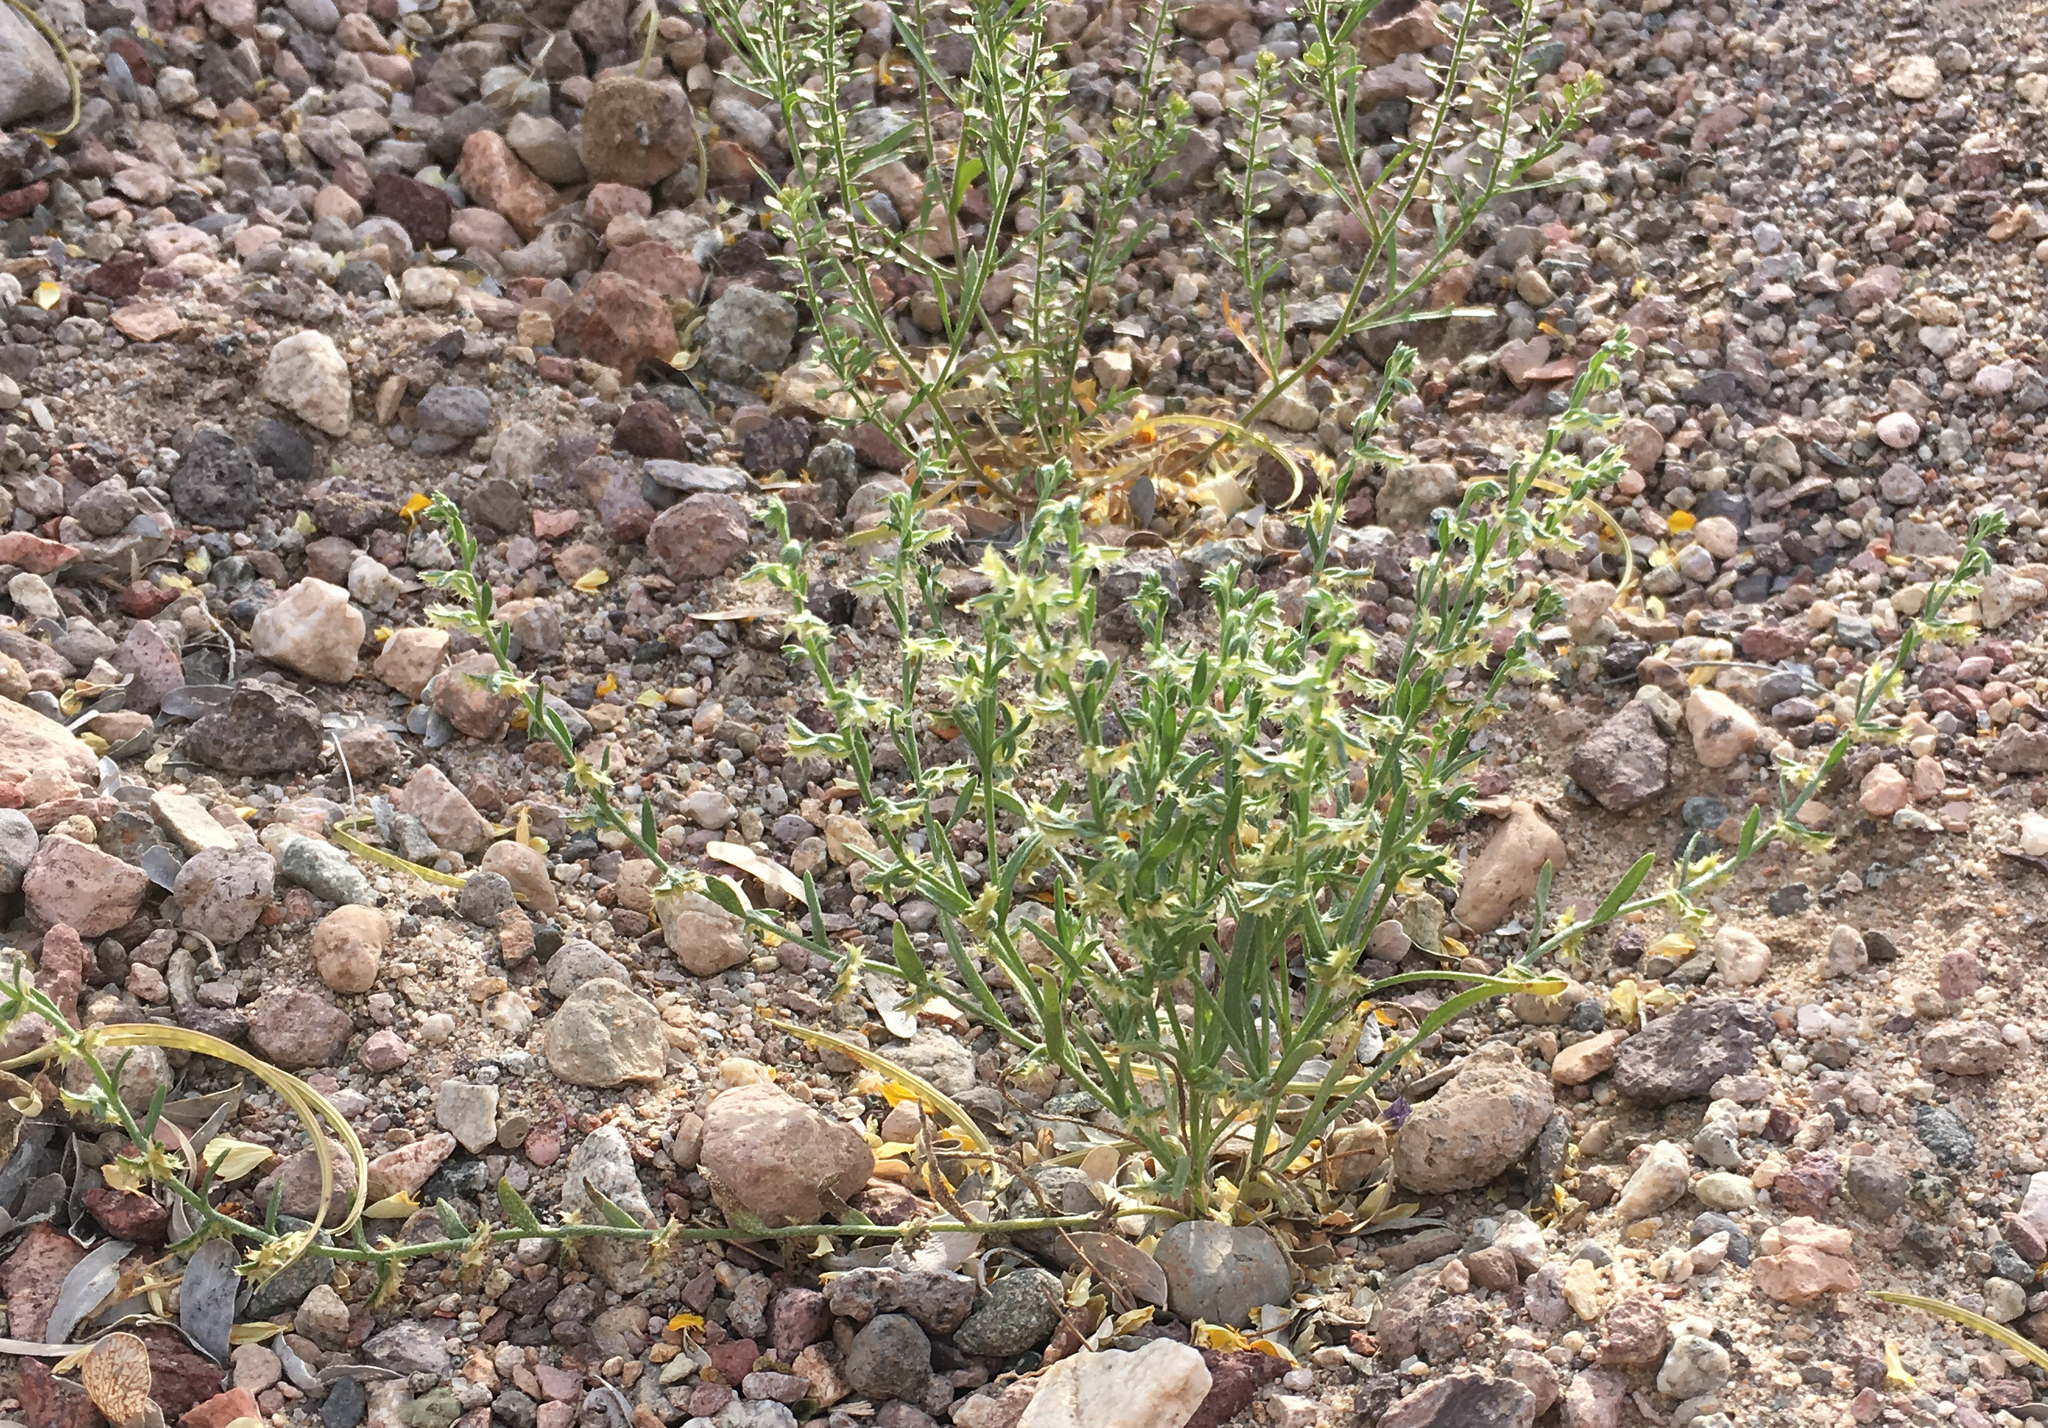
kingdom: Plantae
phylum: Tracheophyta
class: Magnoliopsida
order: Boraginales
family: Boraginaceae
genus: Pectocarya
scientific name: Pectocarya platycarpa
